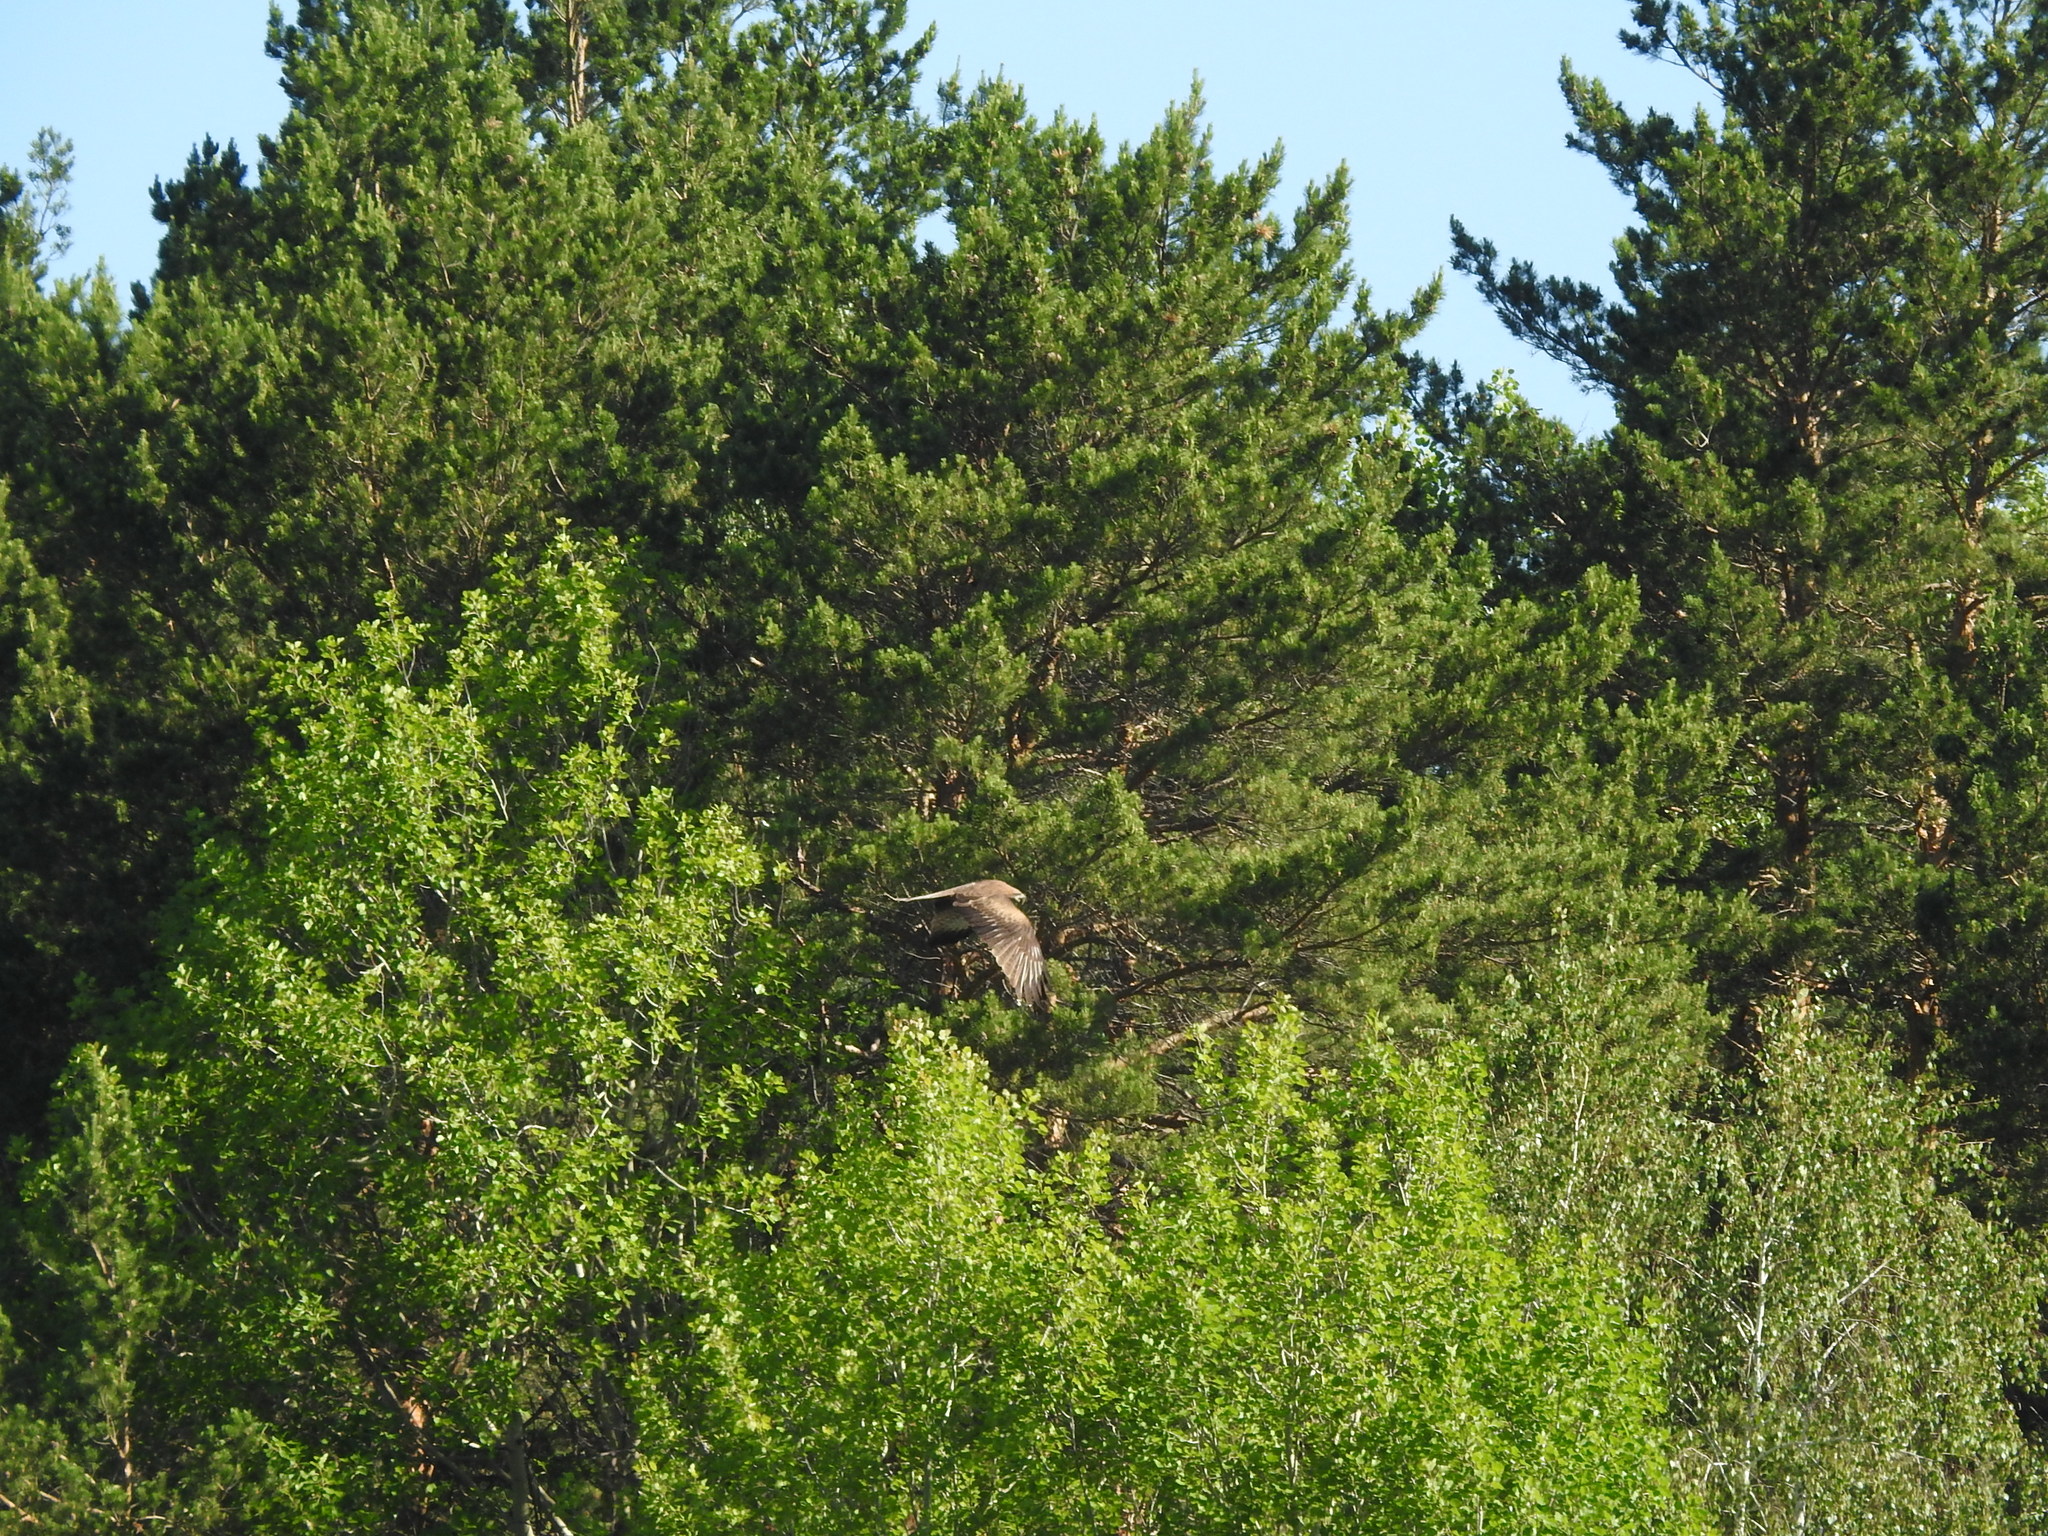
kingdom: Animalia
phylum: Chordata
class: Aves
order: Accipitriformes
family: Accipitridae
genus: Buteo
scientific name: Buteo buteo
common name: Common buzzard
